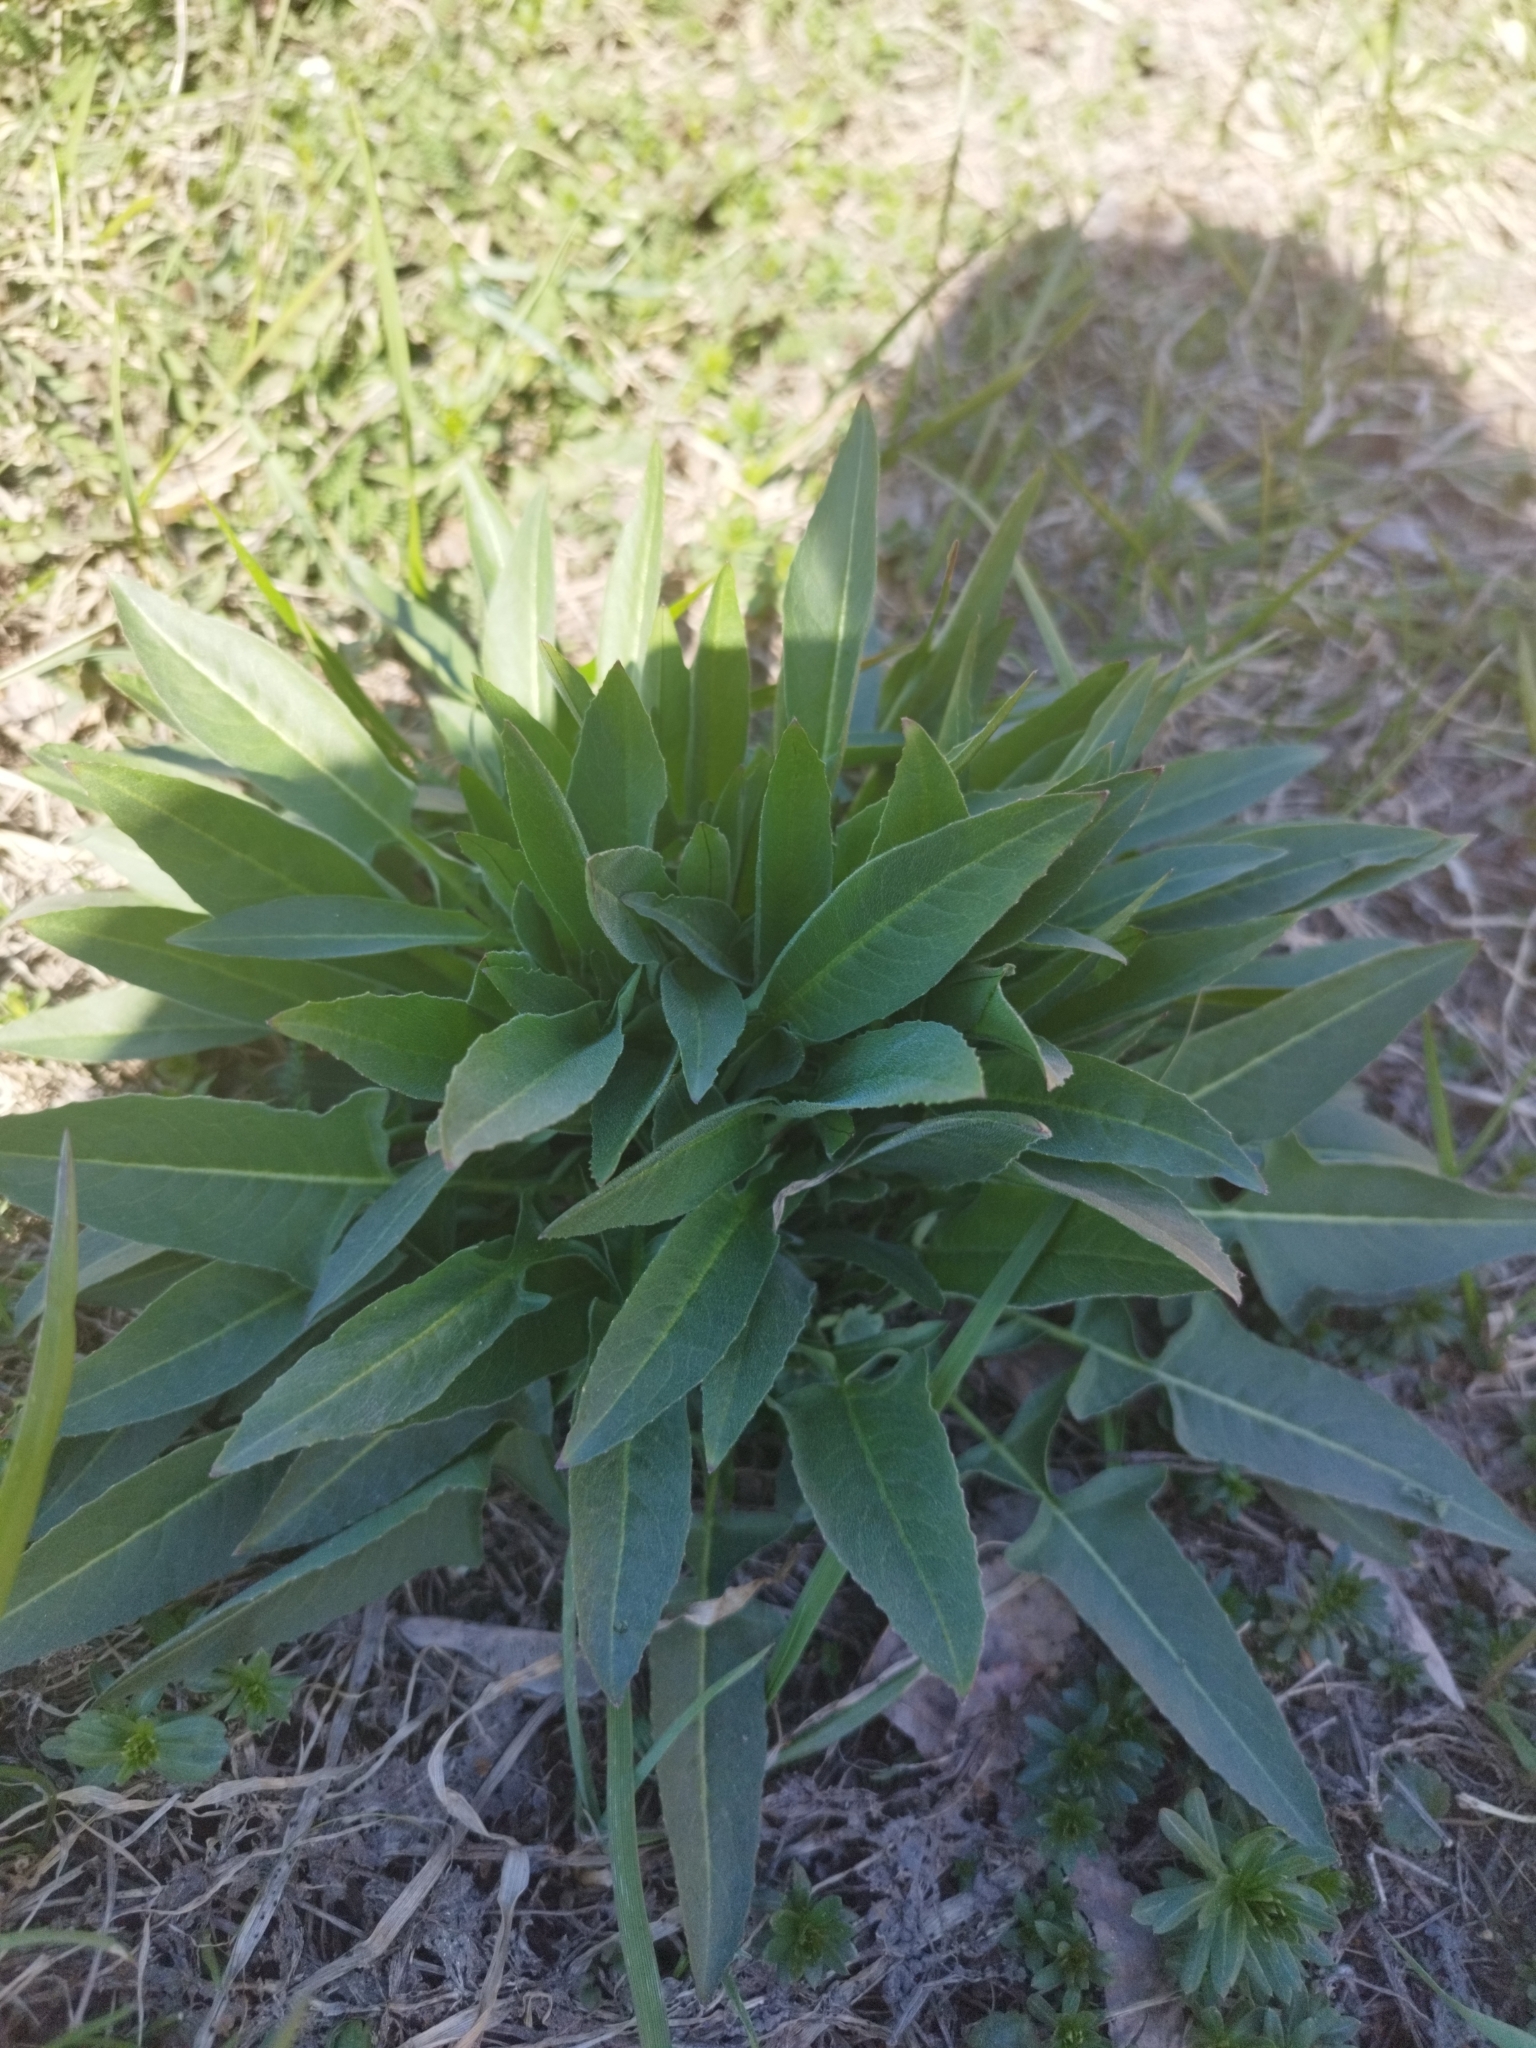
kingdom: Plantae
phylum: Tracheophyta
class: Magnoliopsida
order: Brassicales
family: Brassicaceae
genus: Bunias
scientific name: Bunias orientalis
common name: Warty-cabbage
